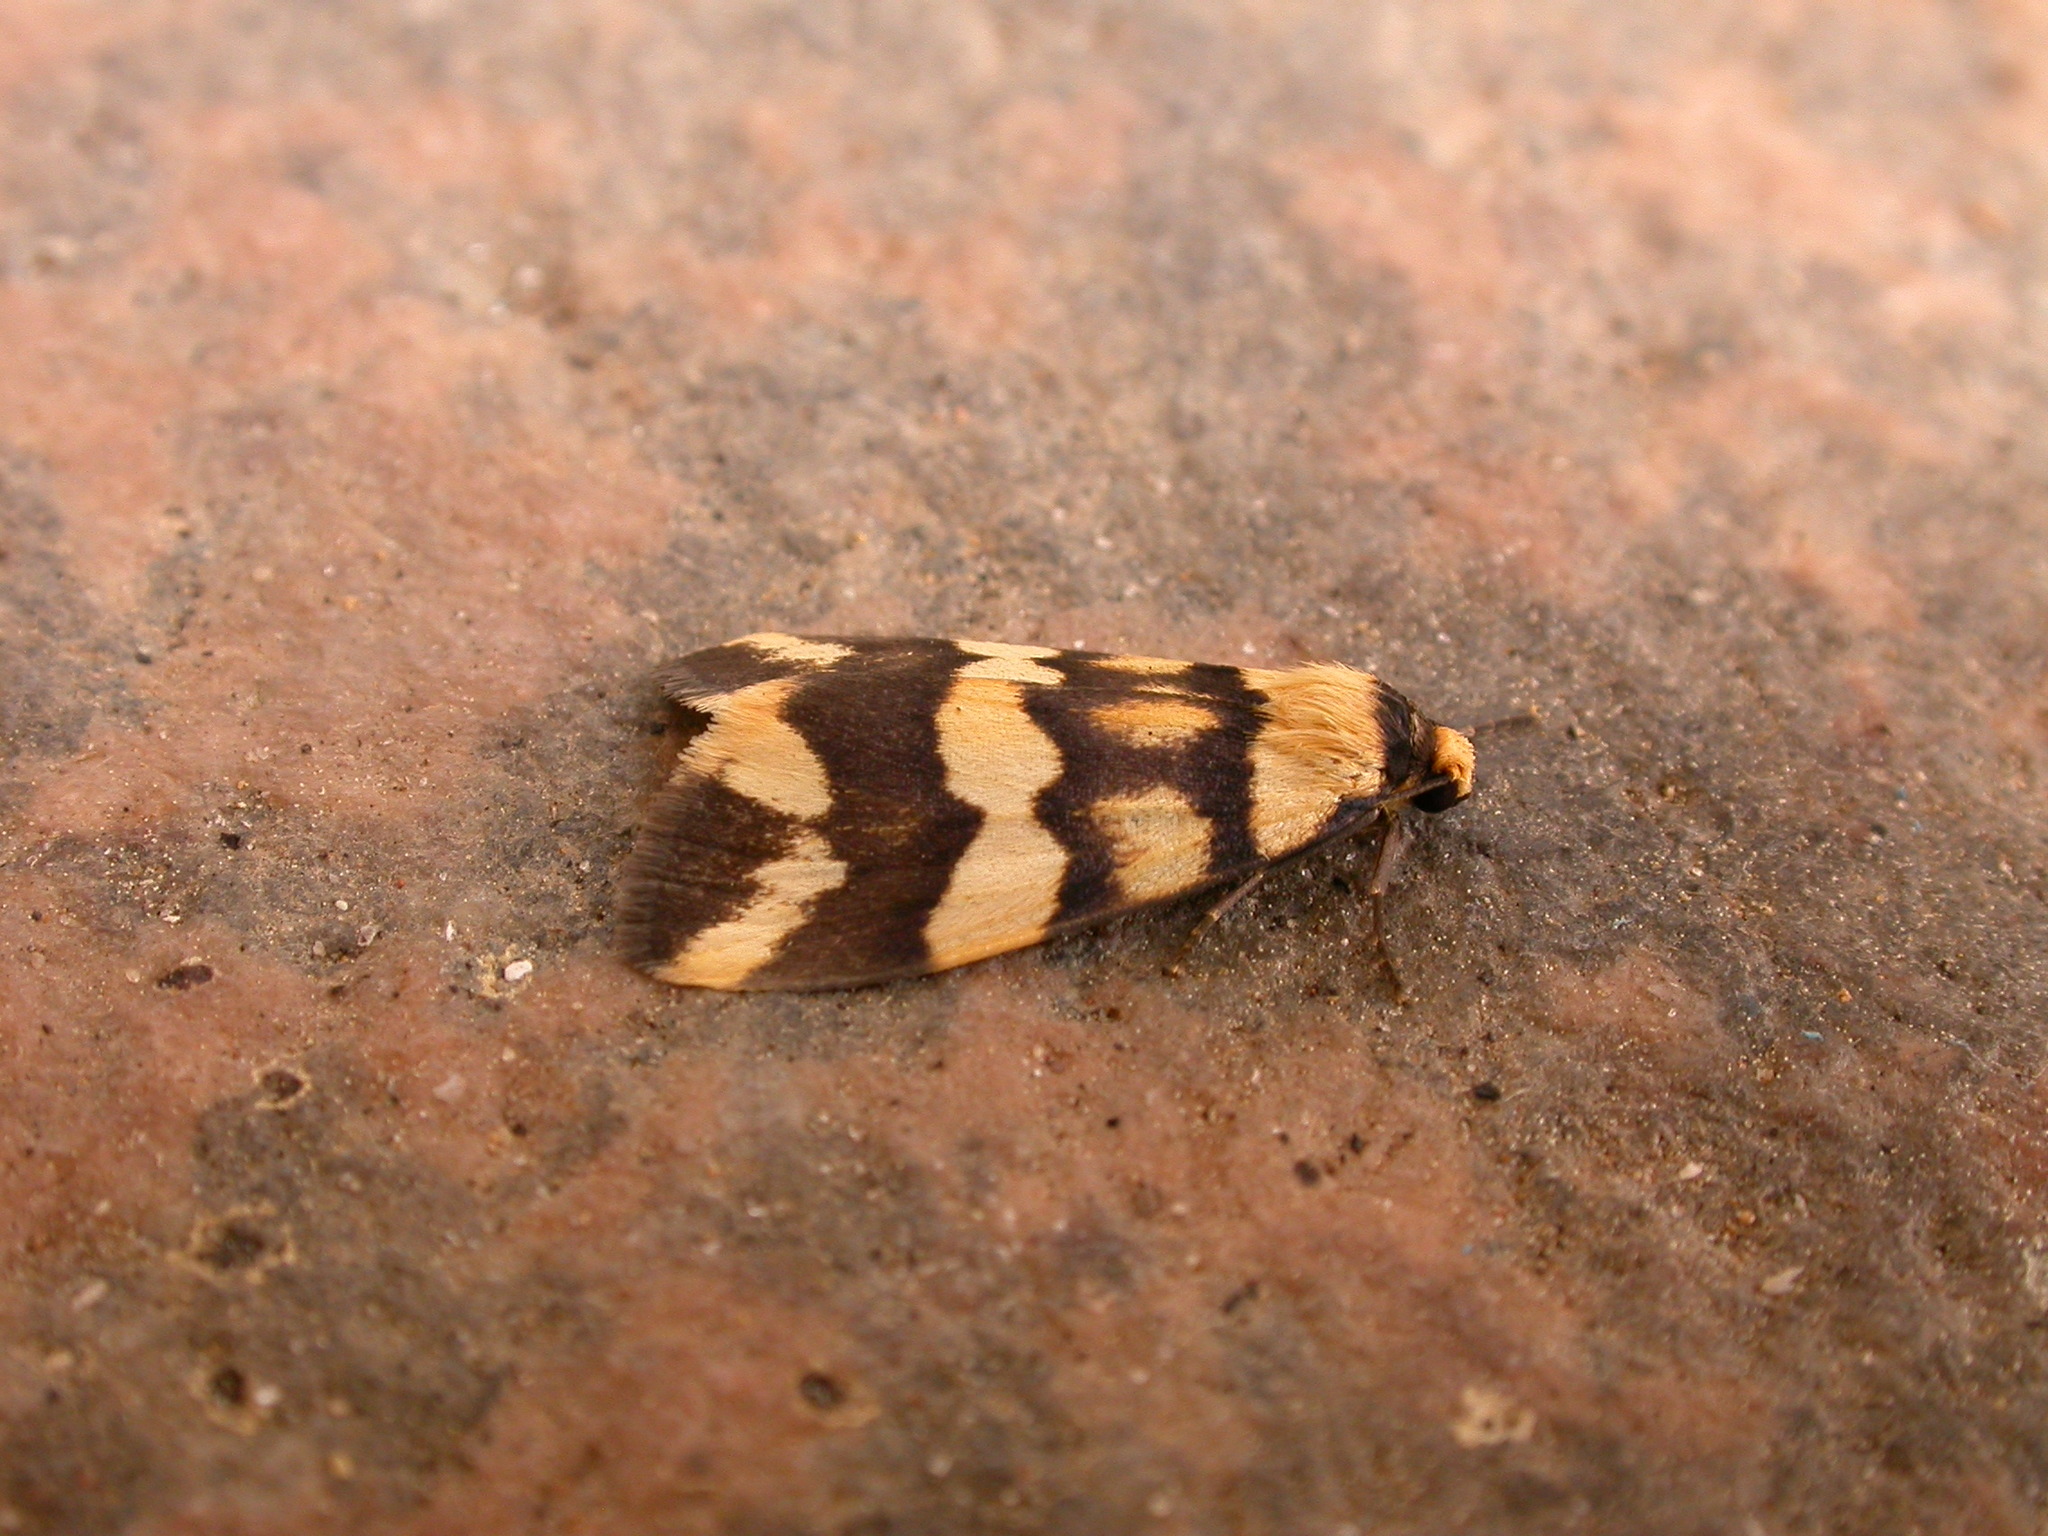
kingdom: Animalia
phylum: Arthropoda
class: Insecta
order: Lepidoptera
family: Erebidae
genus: Termessa
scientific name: Termessa zonophanes
